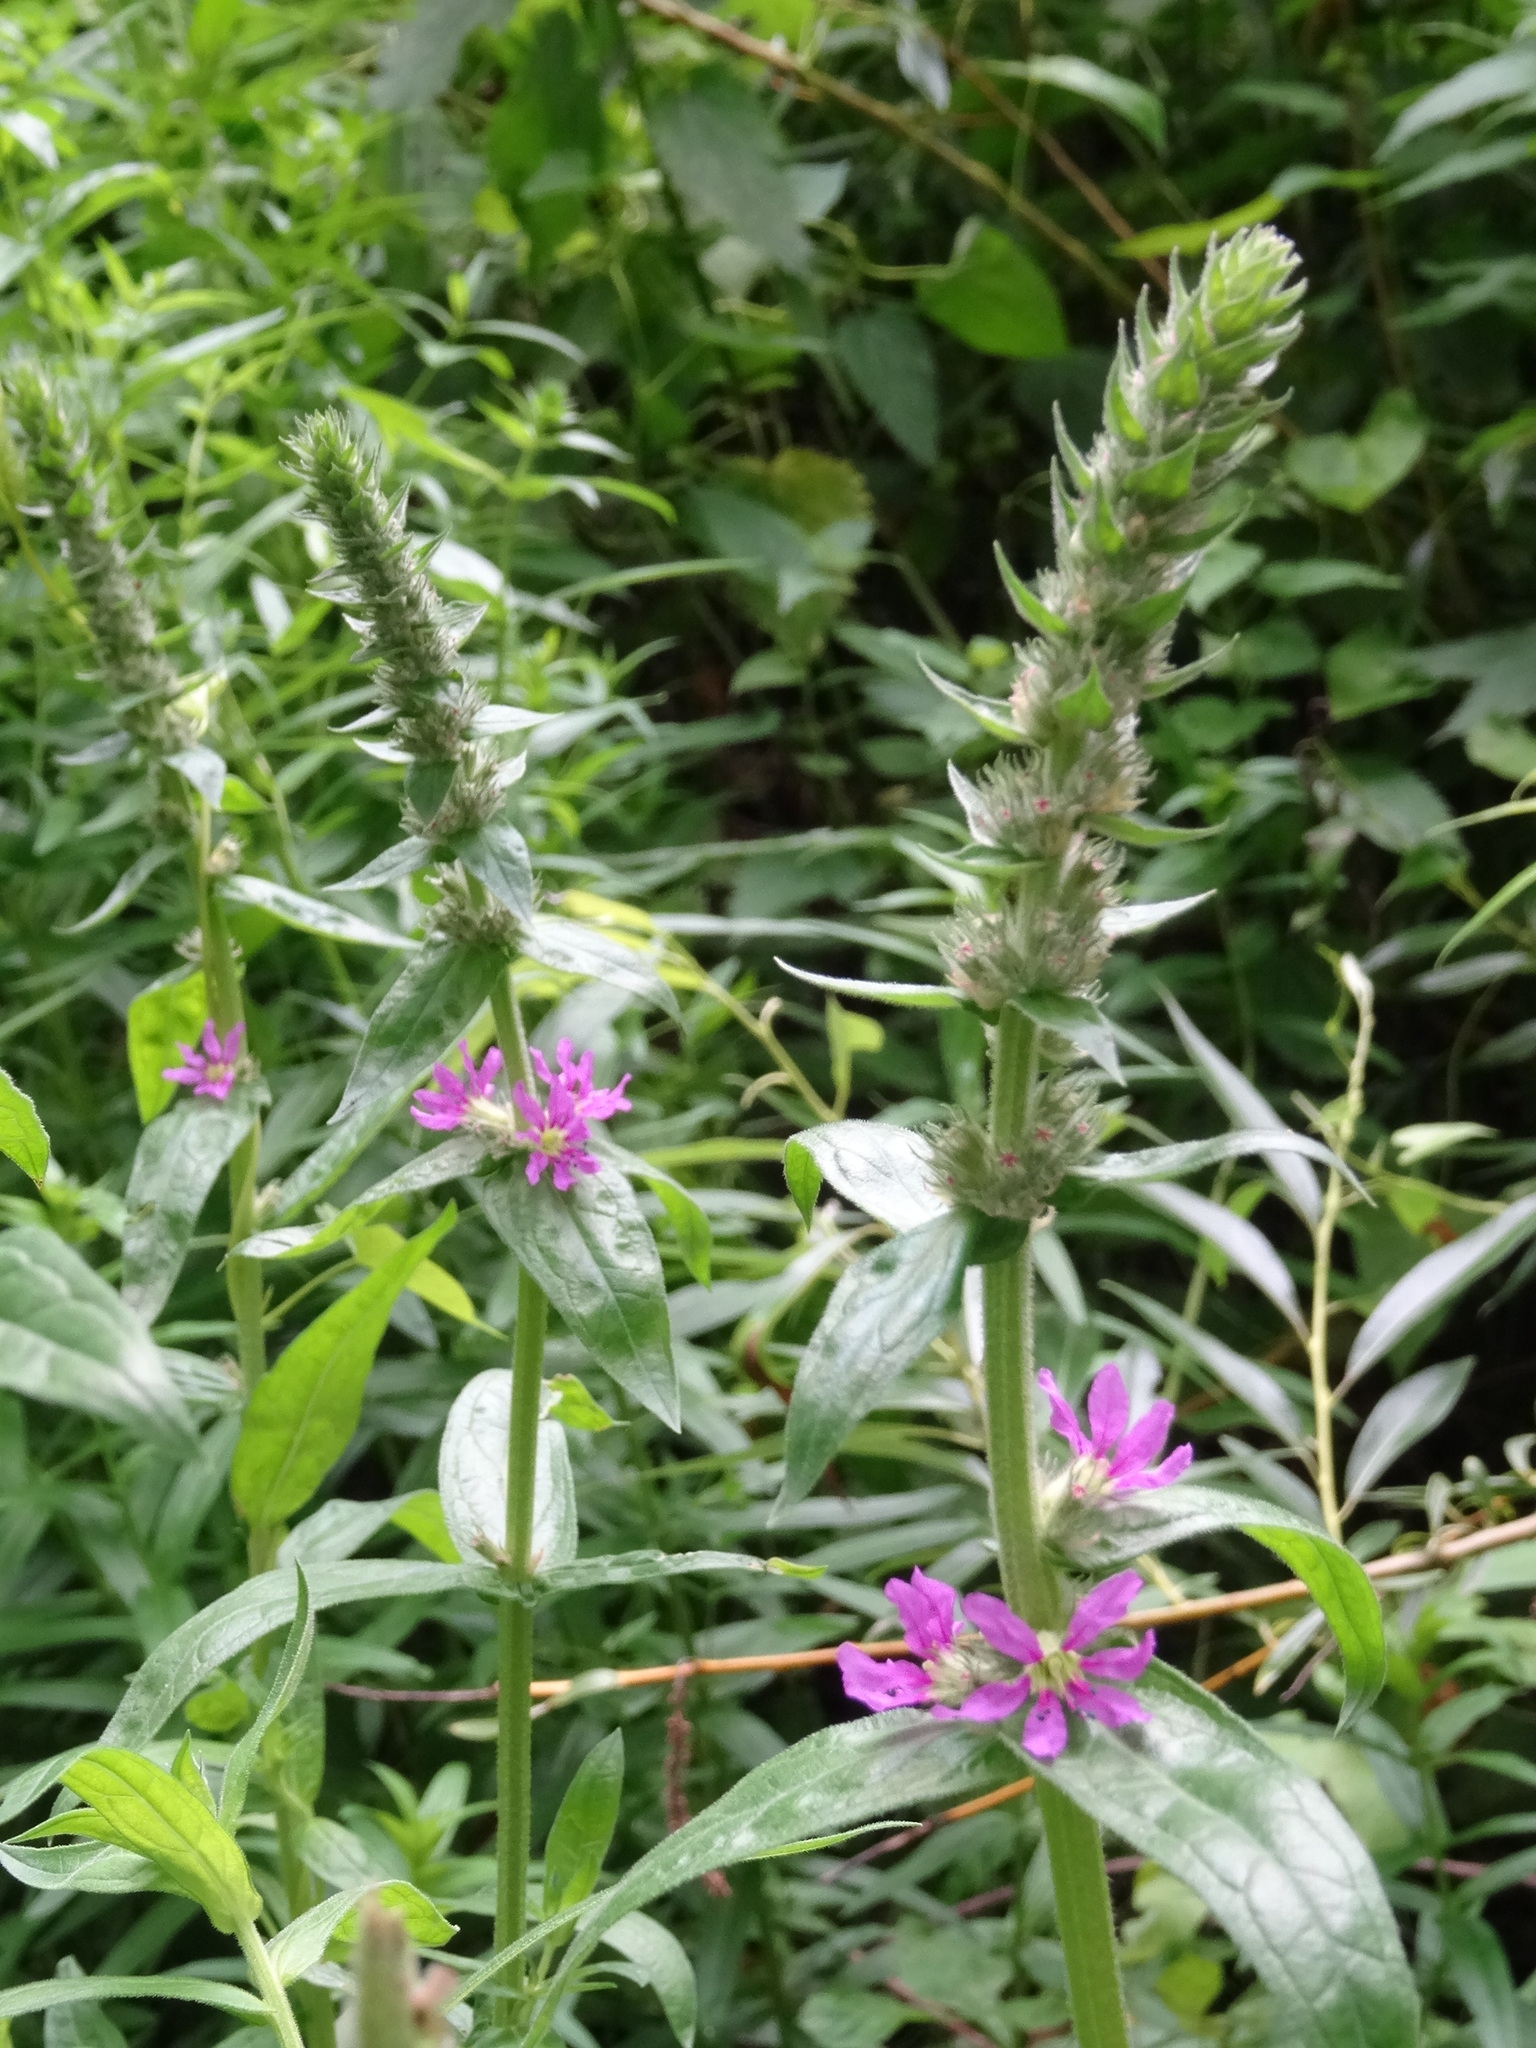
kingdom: Plantae
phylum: Tracheophyta
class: Magnoliopsida
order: Myrtales
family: Lythraceae
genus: Lythrum
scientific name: Lythrum salicaria
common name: Purple loosestrife
